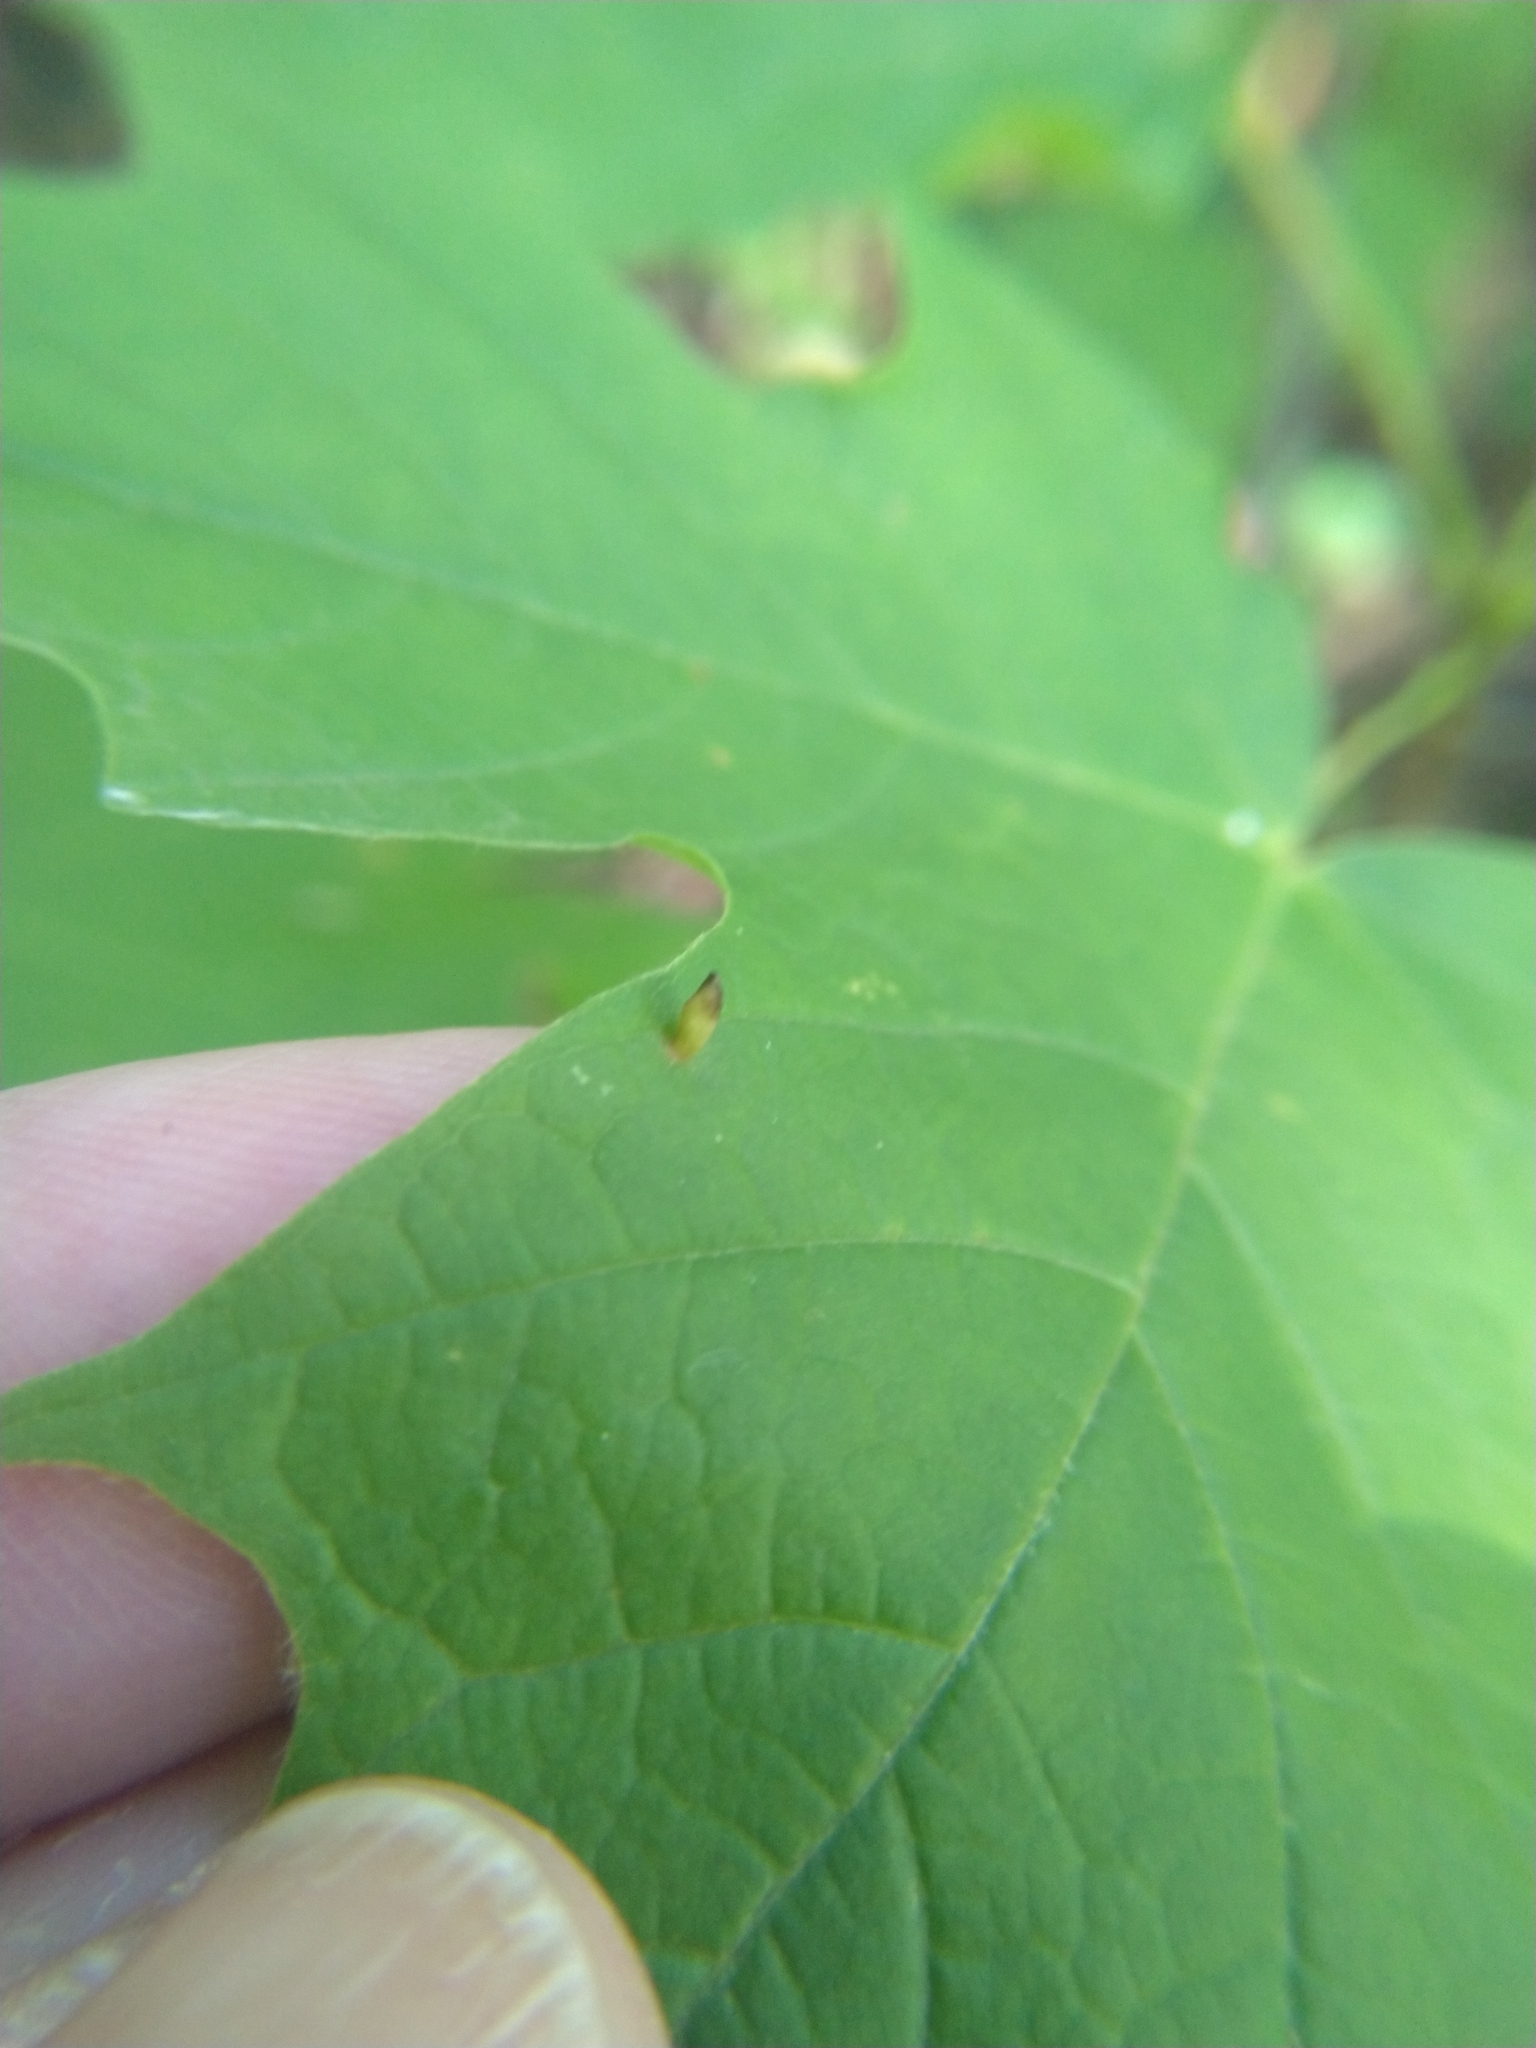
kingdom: Animalia
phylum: Arthropoda
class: Arachnida
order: Trombidiformes
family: Eriophyidae
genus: Vasates
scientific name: Vasates aceriscrumena
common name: Maple spindle gall mite
